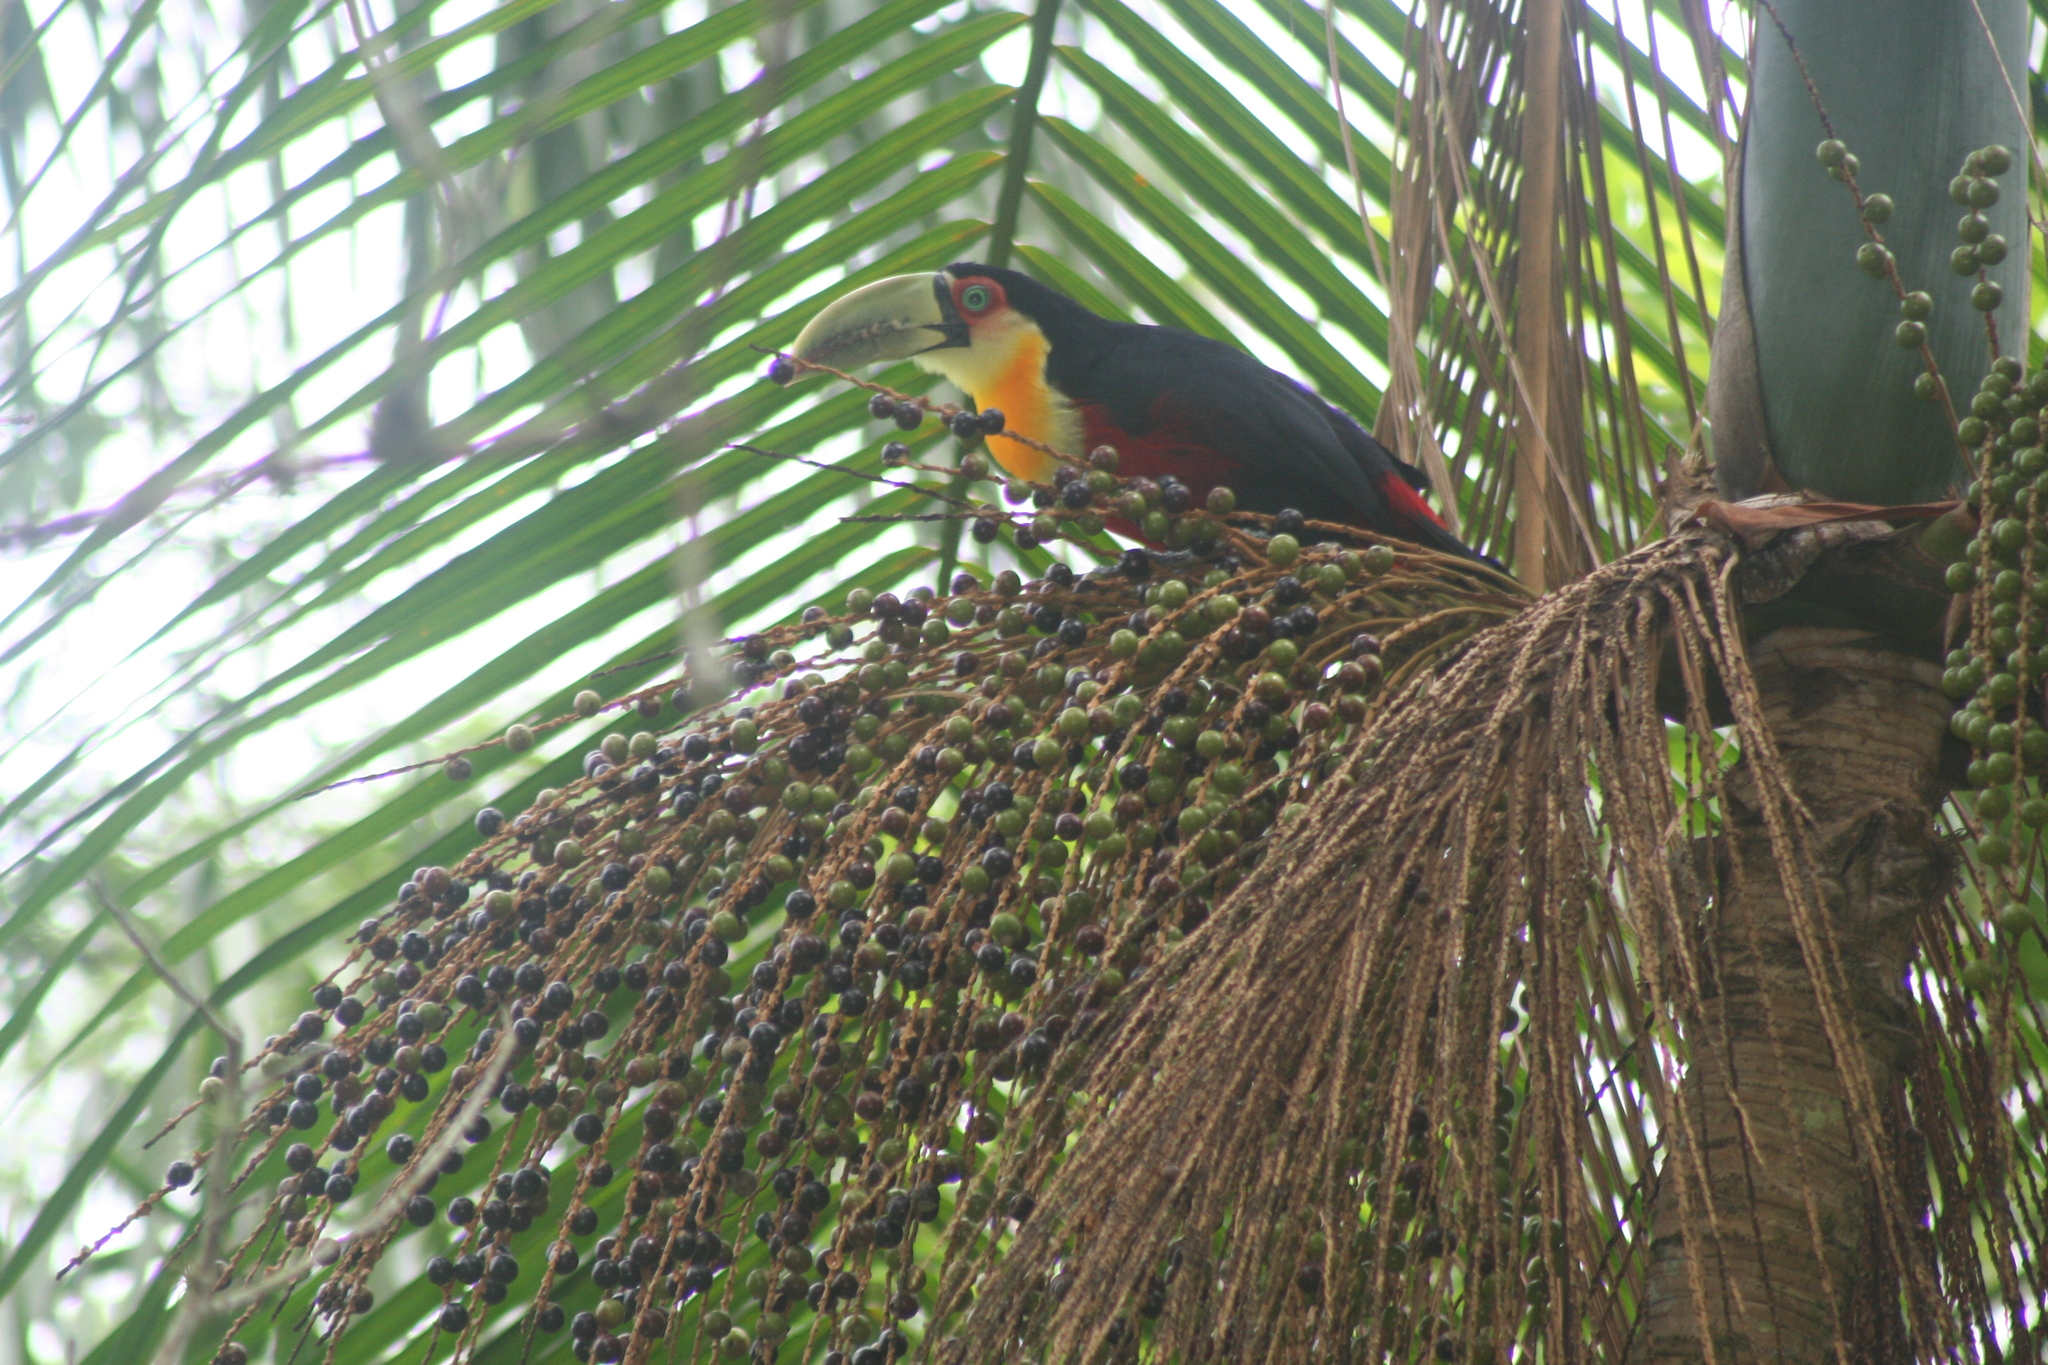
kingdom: Animalia
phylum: Chordata
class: Aves
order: Piciformes
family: Ramphastidae
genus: Ramphastos
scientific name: Ramphastos dicolorus
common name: Green-billed toucan
